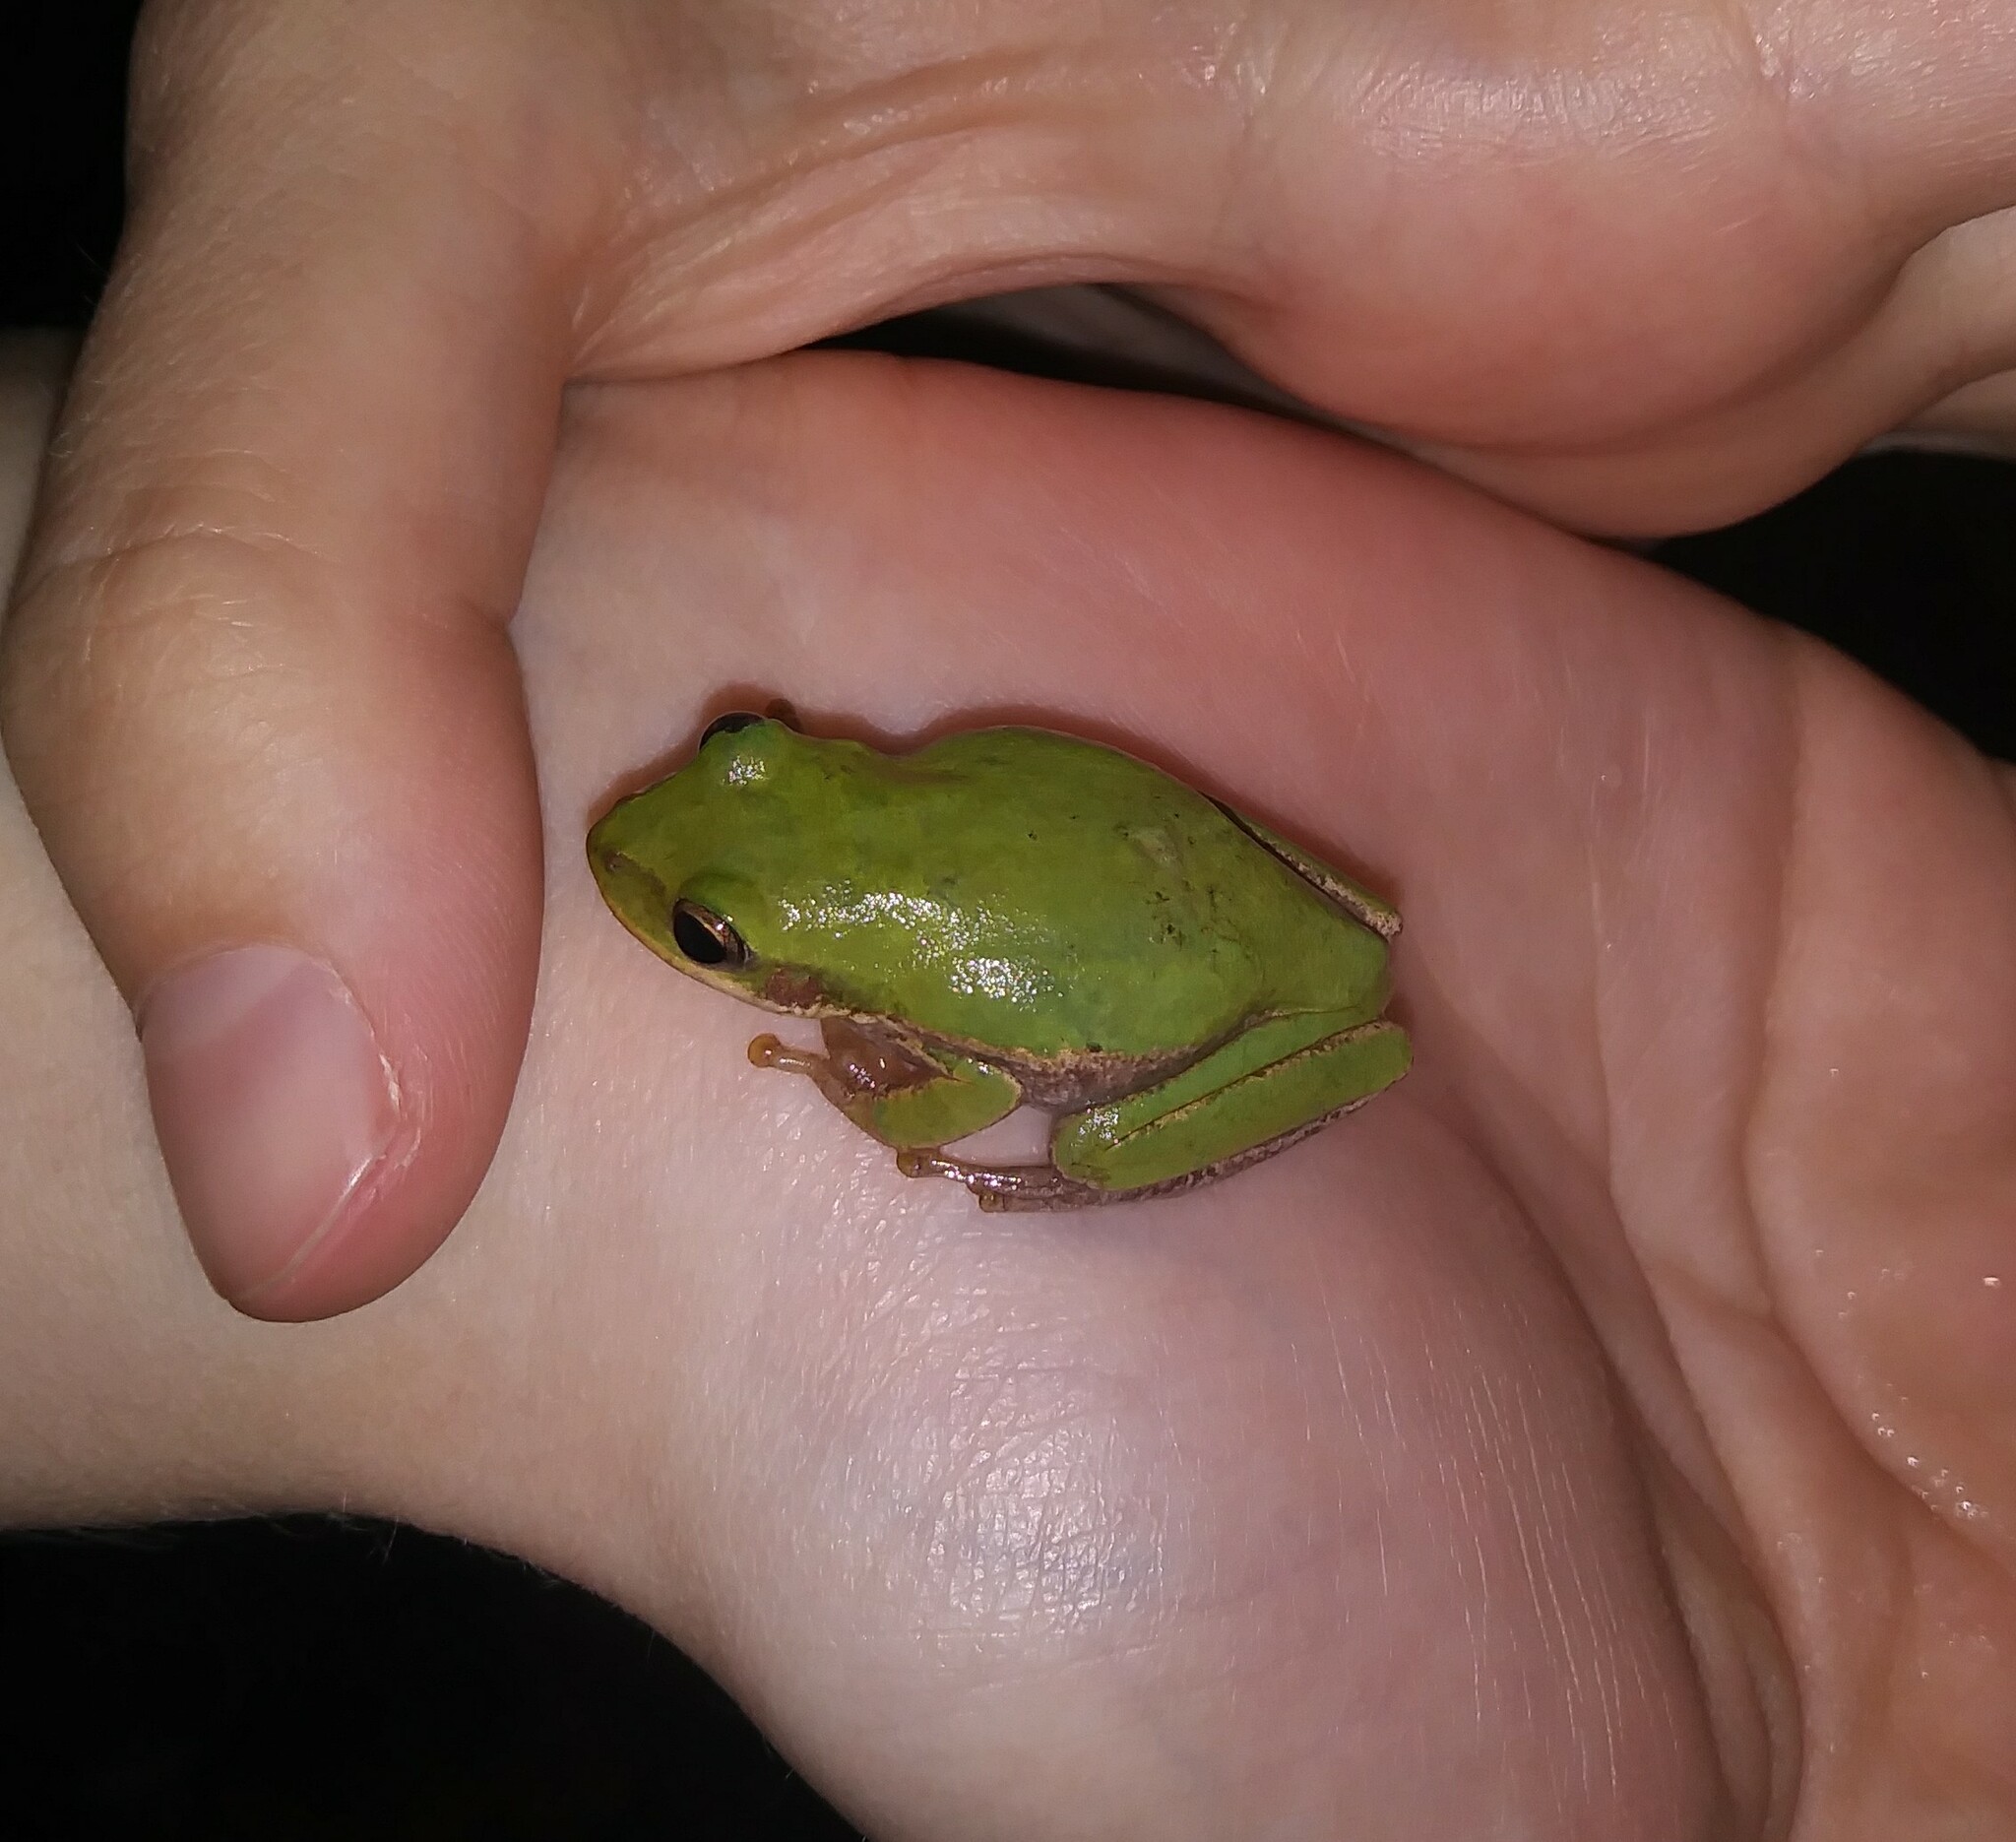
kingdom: Animalia
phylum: Chordata
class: Amphibia
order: Anura
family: Hylidae
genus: Dryophytes
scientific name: Dryophytes squirellus
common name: Squirrel treefrog
